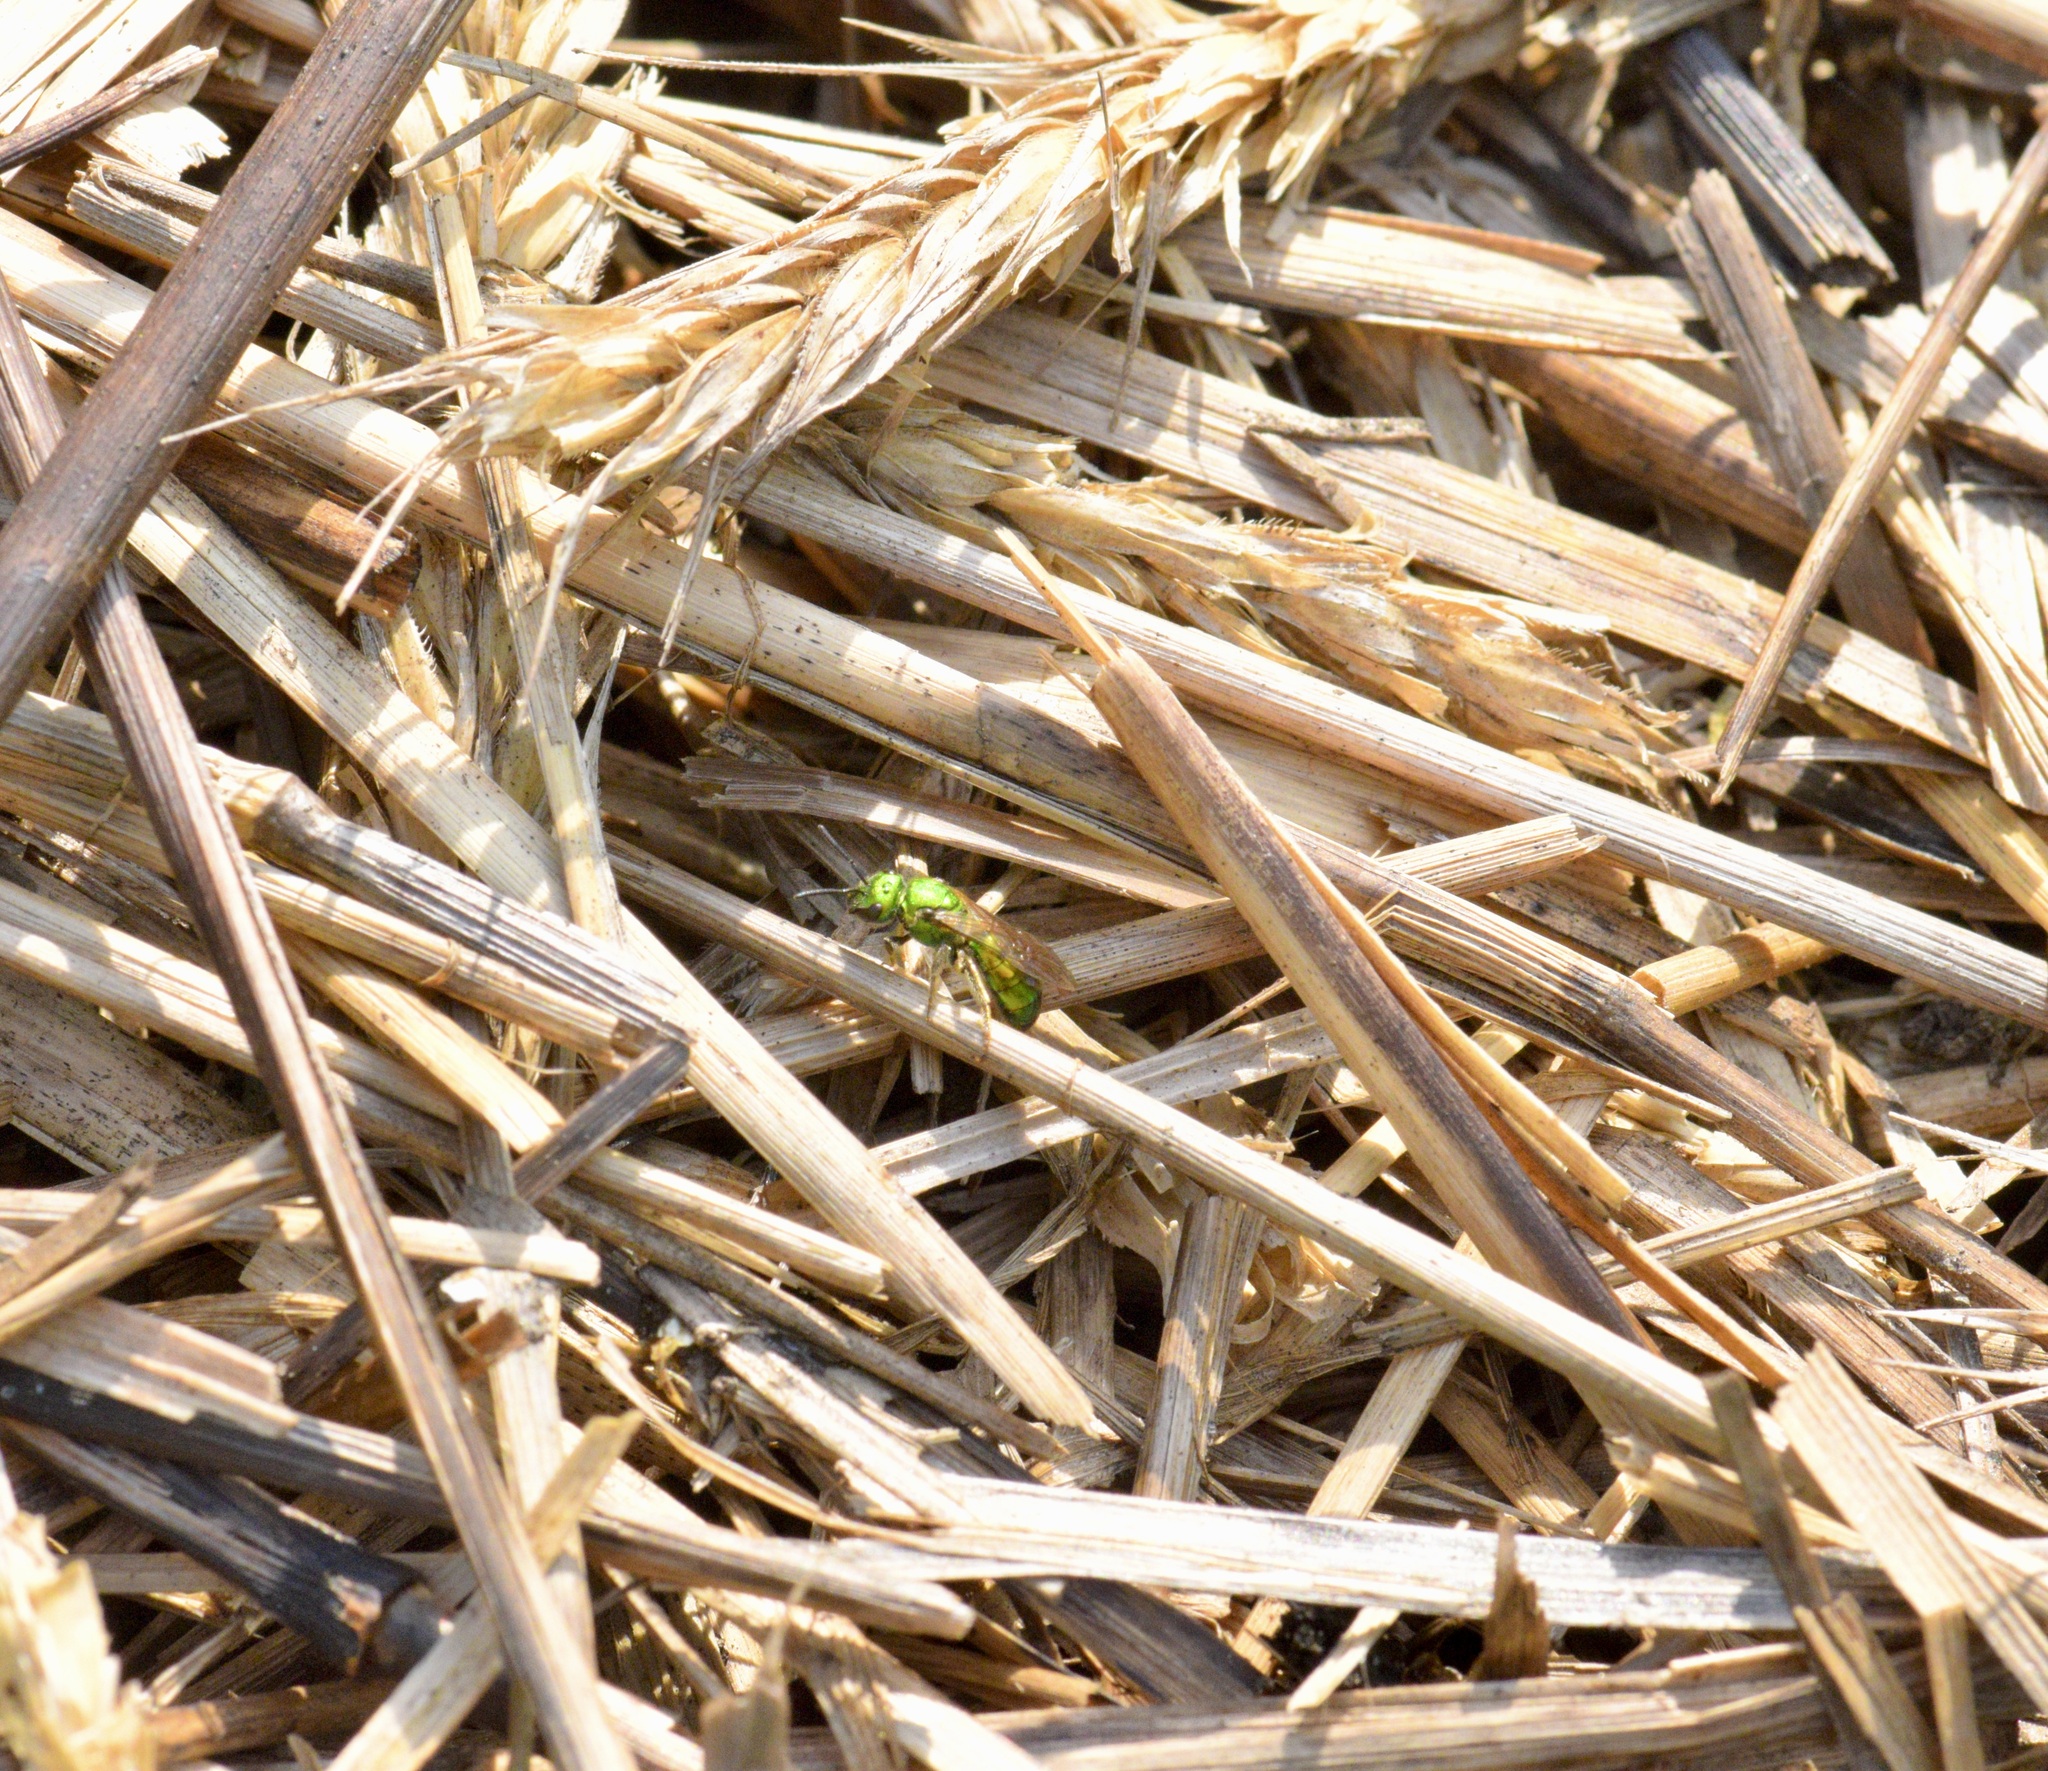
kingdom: Animalia
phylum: Arthropoda
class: Insecta
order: Hymenoptera
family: Halictidae
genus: Augochlora
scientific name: Augochlora pura
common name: Pure green sweat bee
